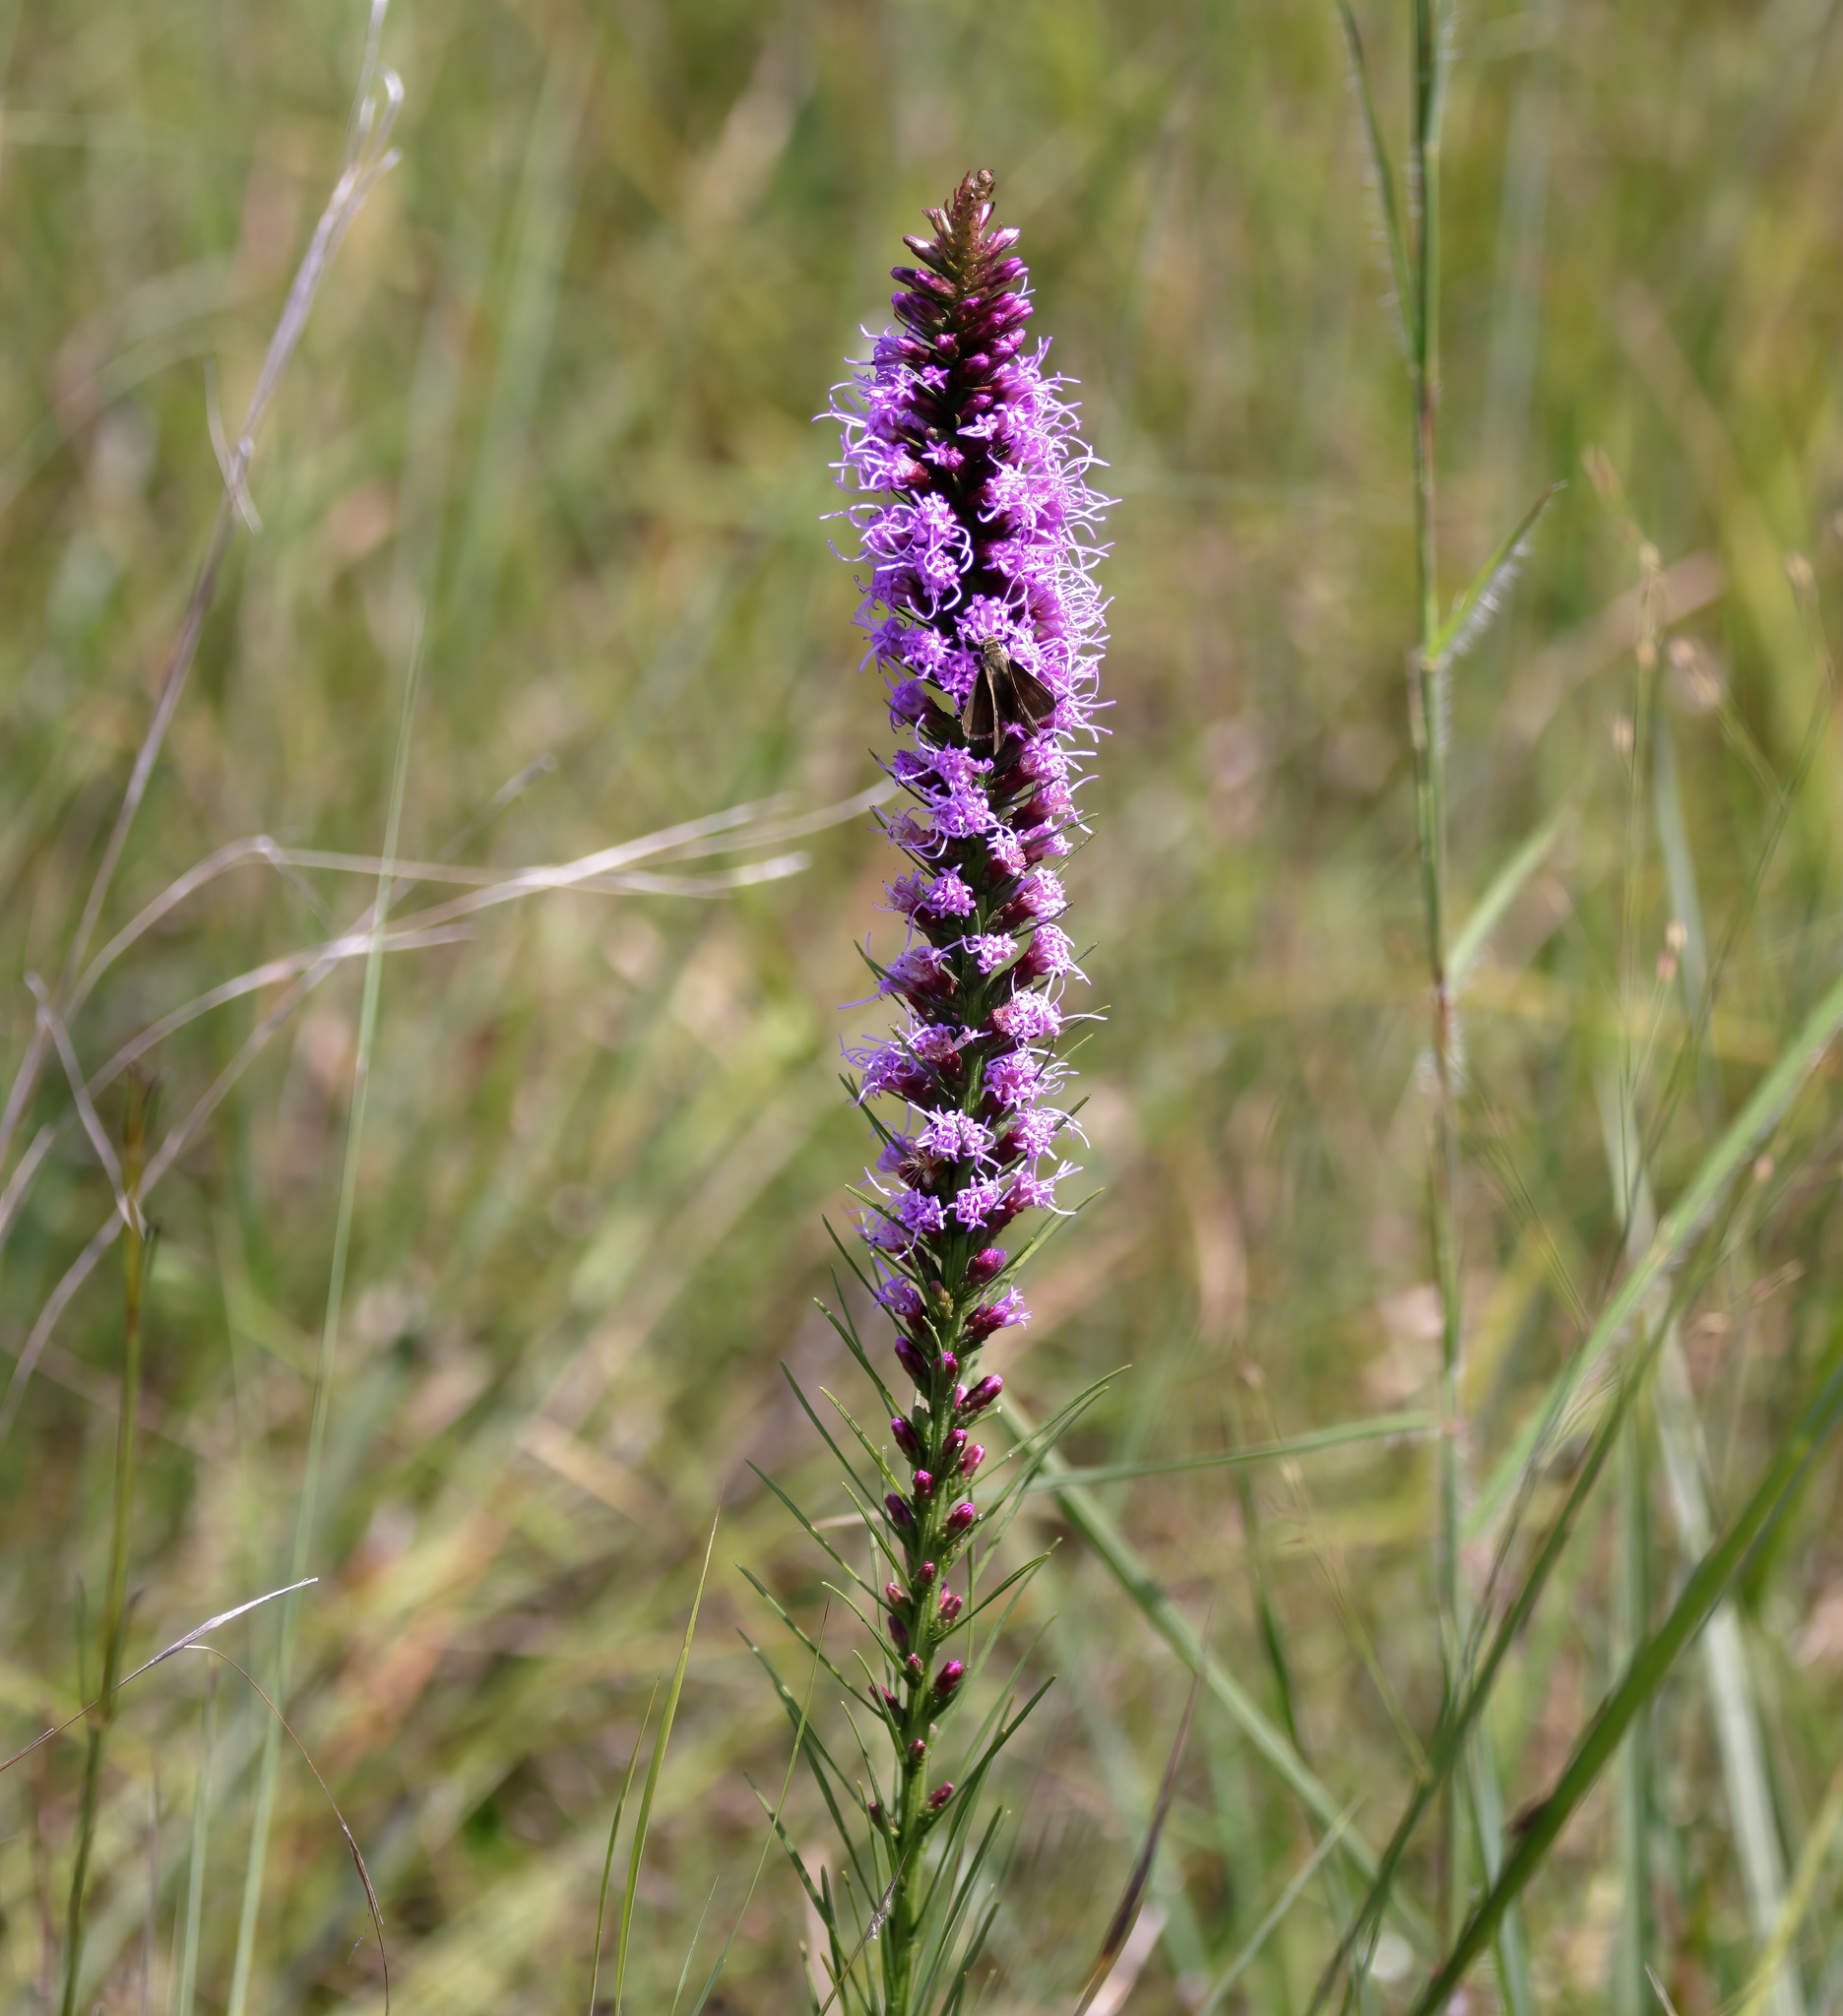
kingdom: Plantae
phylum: Tracheophyta
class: Magnoliopsida
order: Asterales
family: Asteraceae
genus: Liatris
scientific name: Liatris spicata
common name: Florist gayfeather
